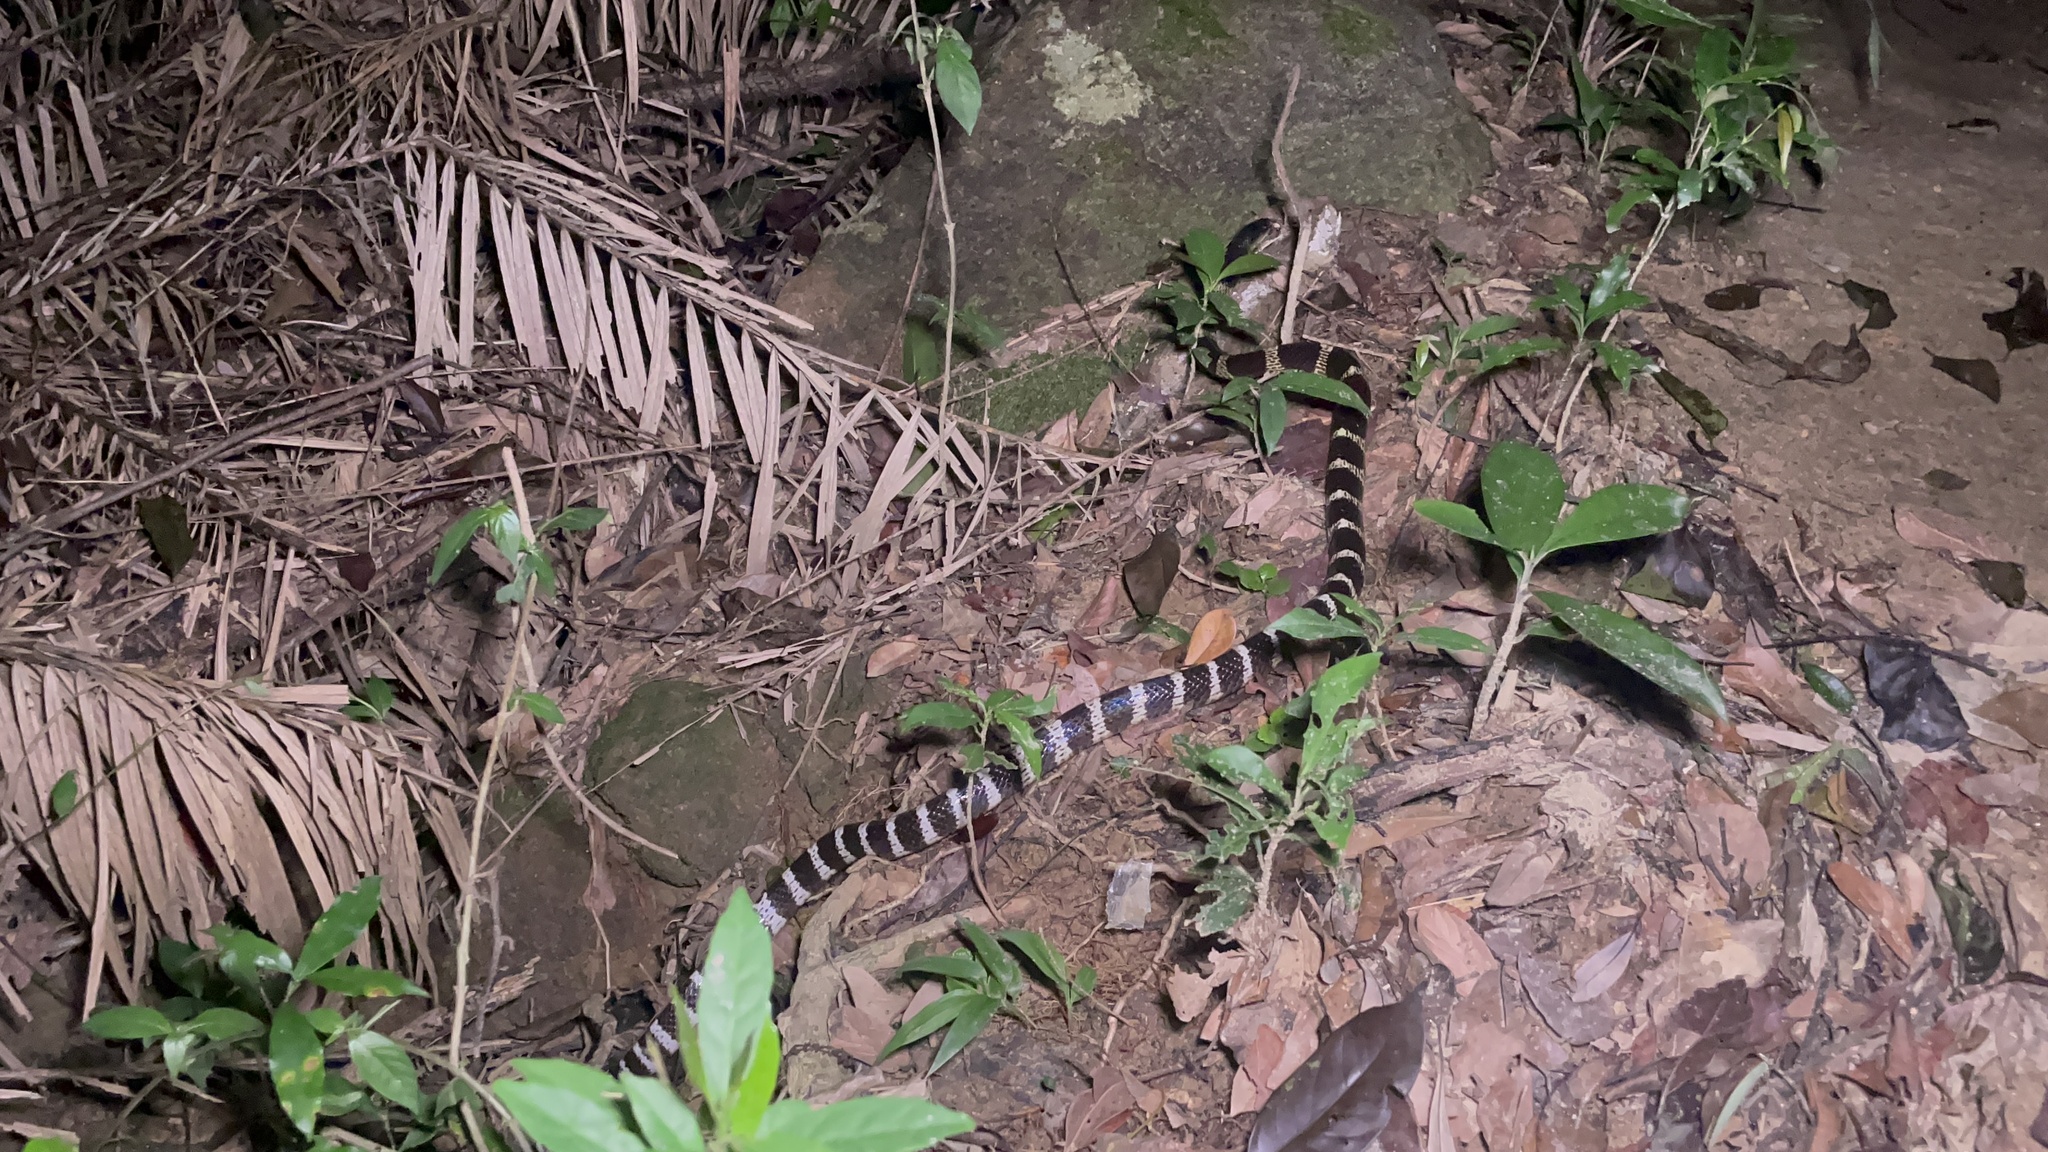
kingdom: Animalia
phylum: Chordata
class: Squamata
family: Elapidae
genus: Bungarus
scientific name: Bungarus multicinctus
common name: Many-banded krait
